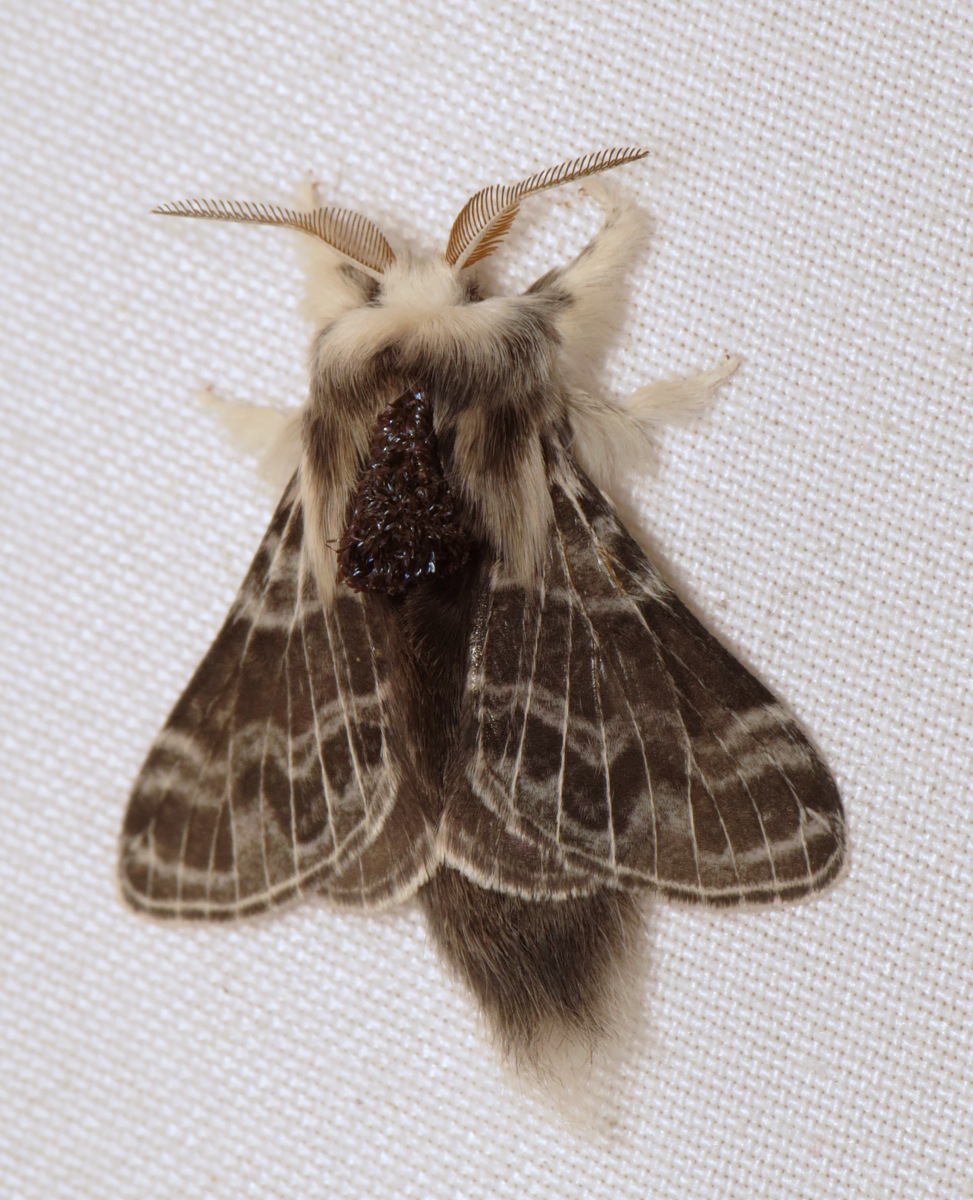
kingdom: Animalia
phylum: Arthropoda
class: Insecta
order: Lepidoptera
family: Lasiocampidae
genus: Tolype
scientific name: Tolype laricis
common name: Larch tolype moth
